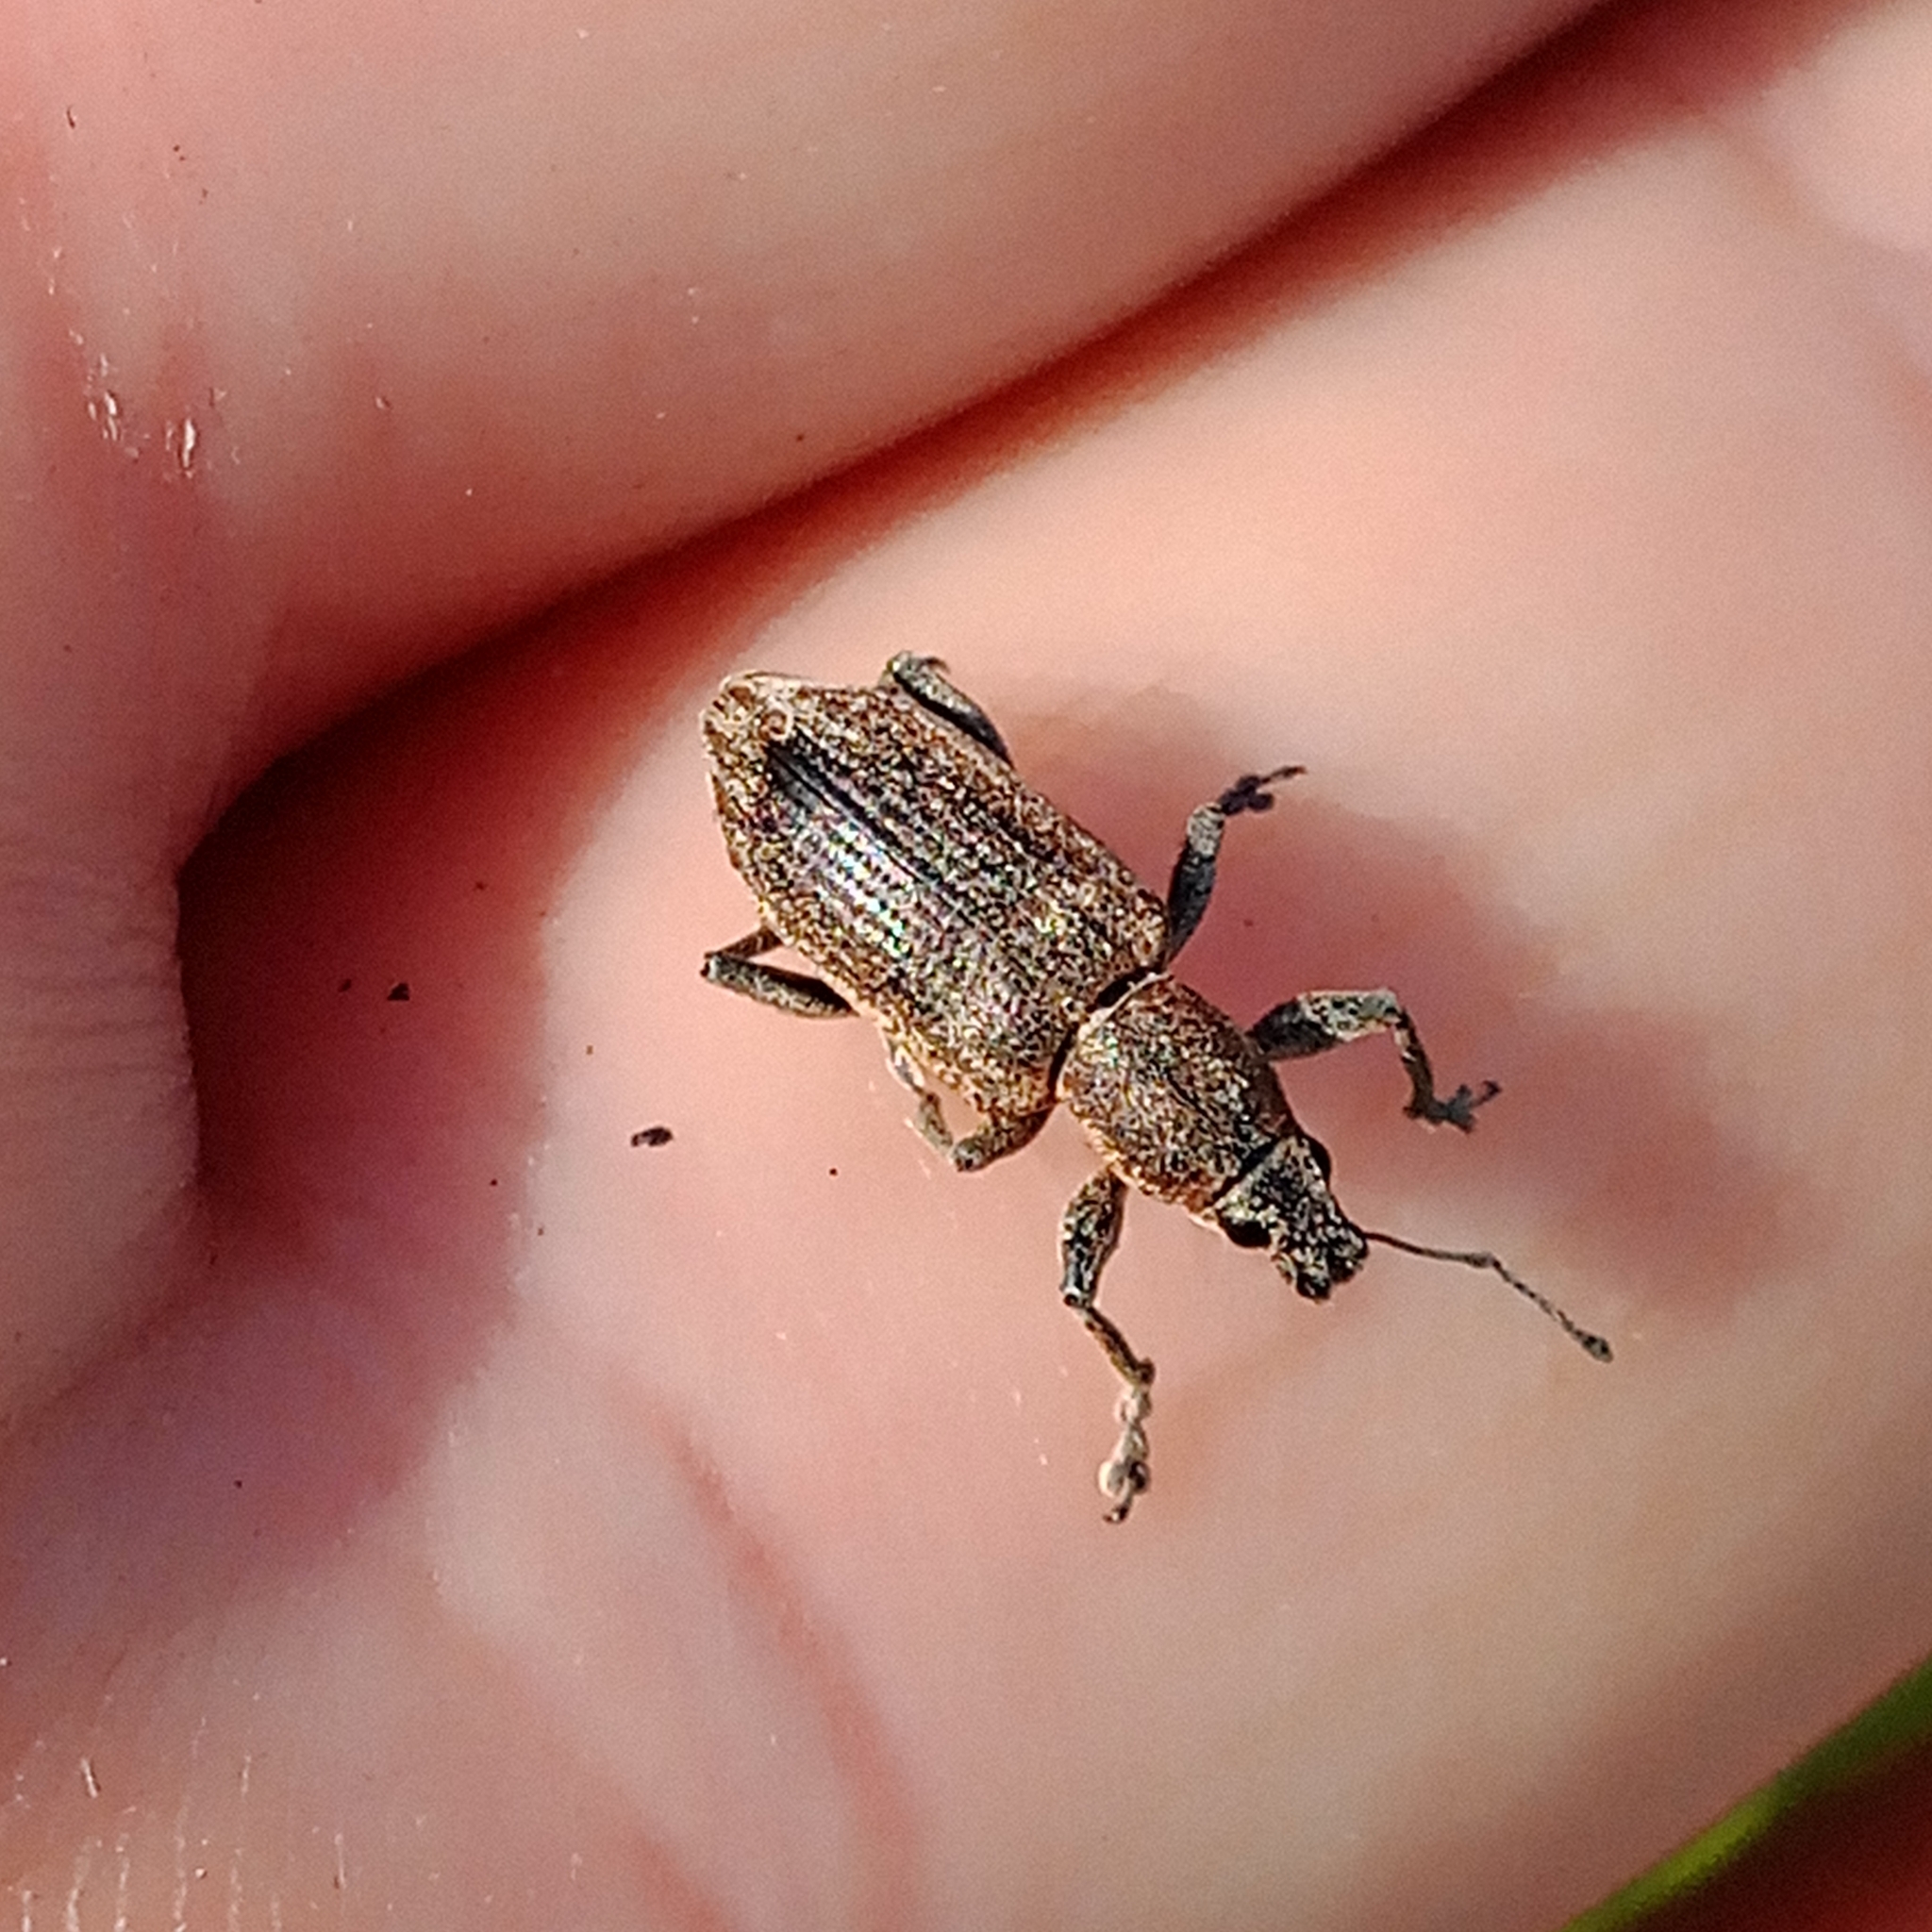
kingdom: Animalia
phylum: Arthropoda
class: Insecta
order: Coleoptera
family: Curculionidae
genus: Tanymecus
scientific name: Tanymecus palliatus
